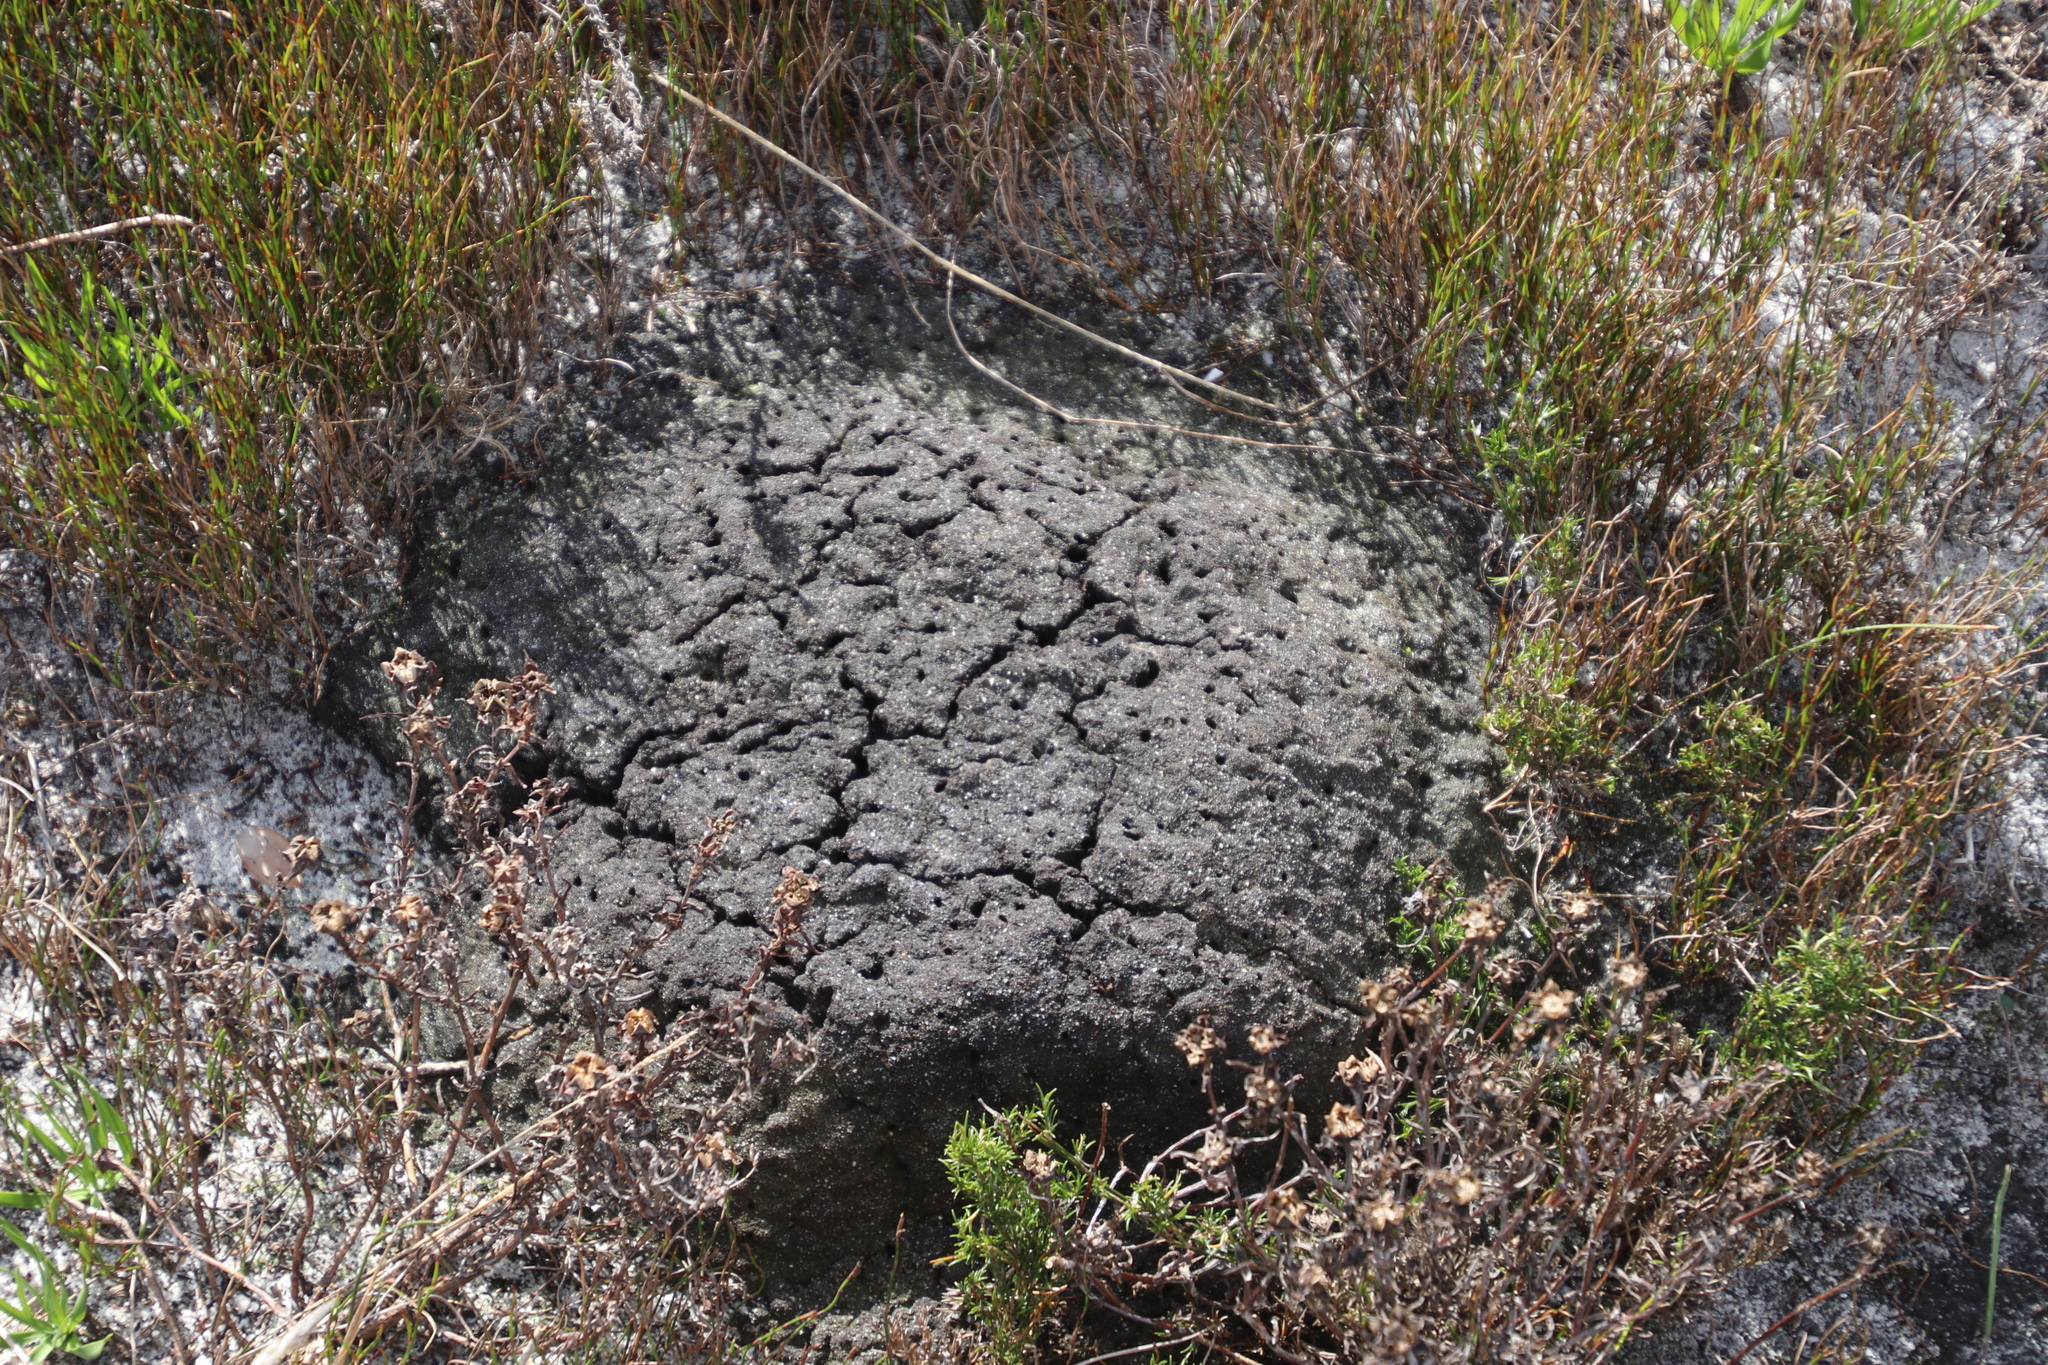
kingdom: Animalia
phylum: Arthropoda
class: Insecta
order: Blattodea
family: Termitidae
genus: Amitermes
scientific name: Amitermes hastatus
